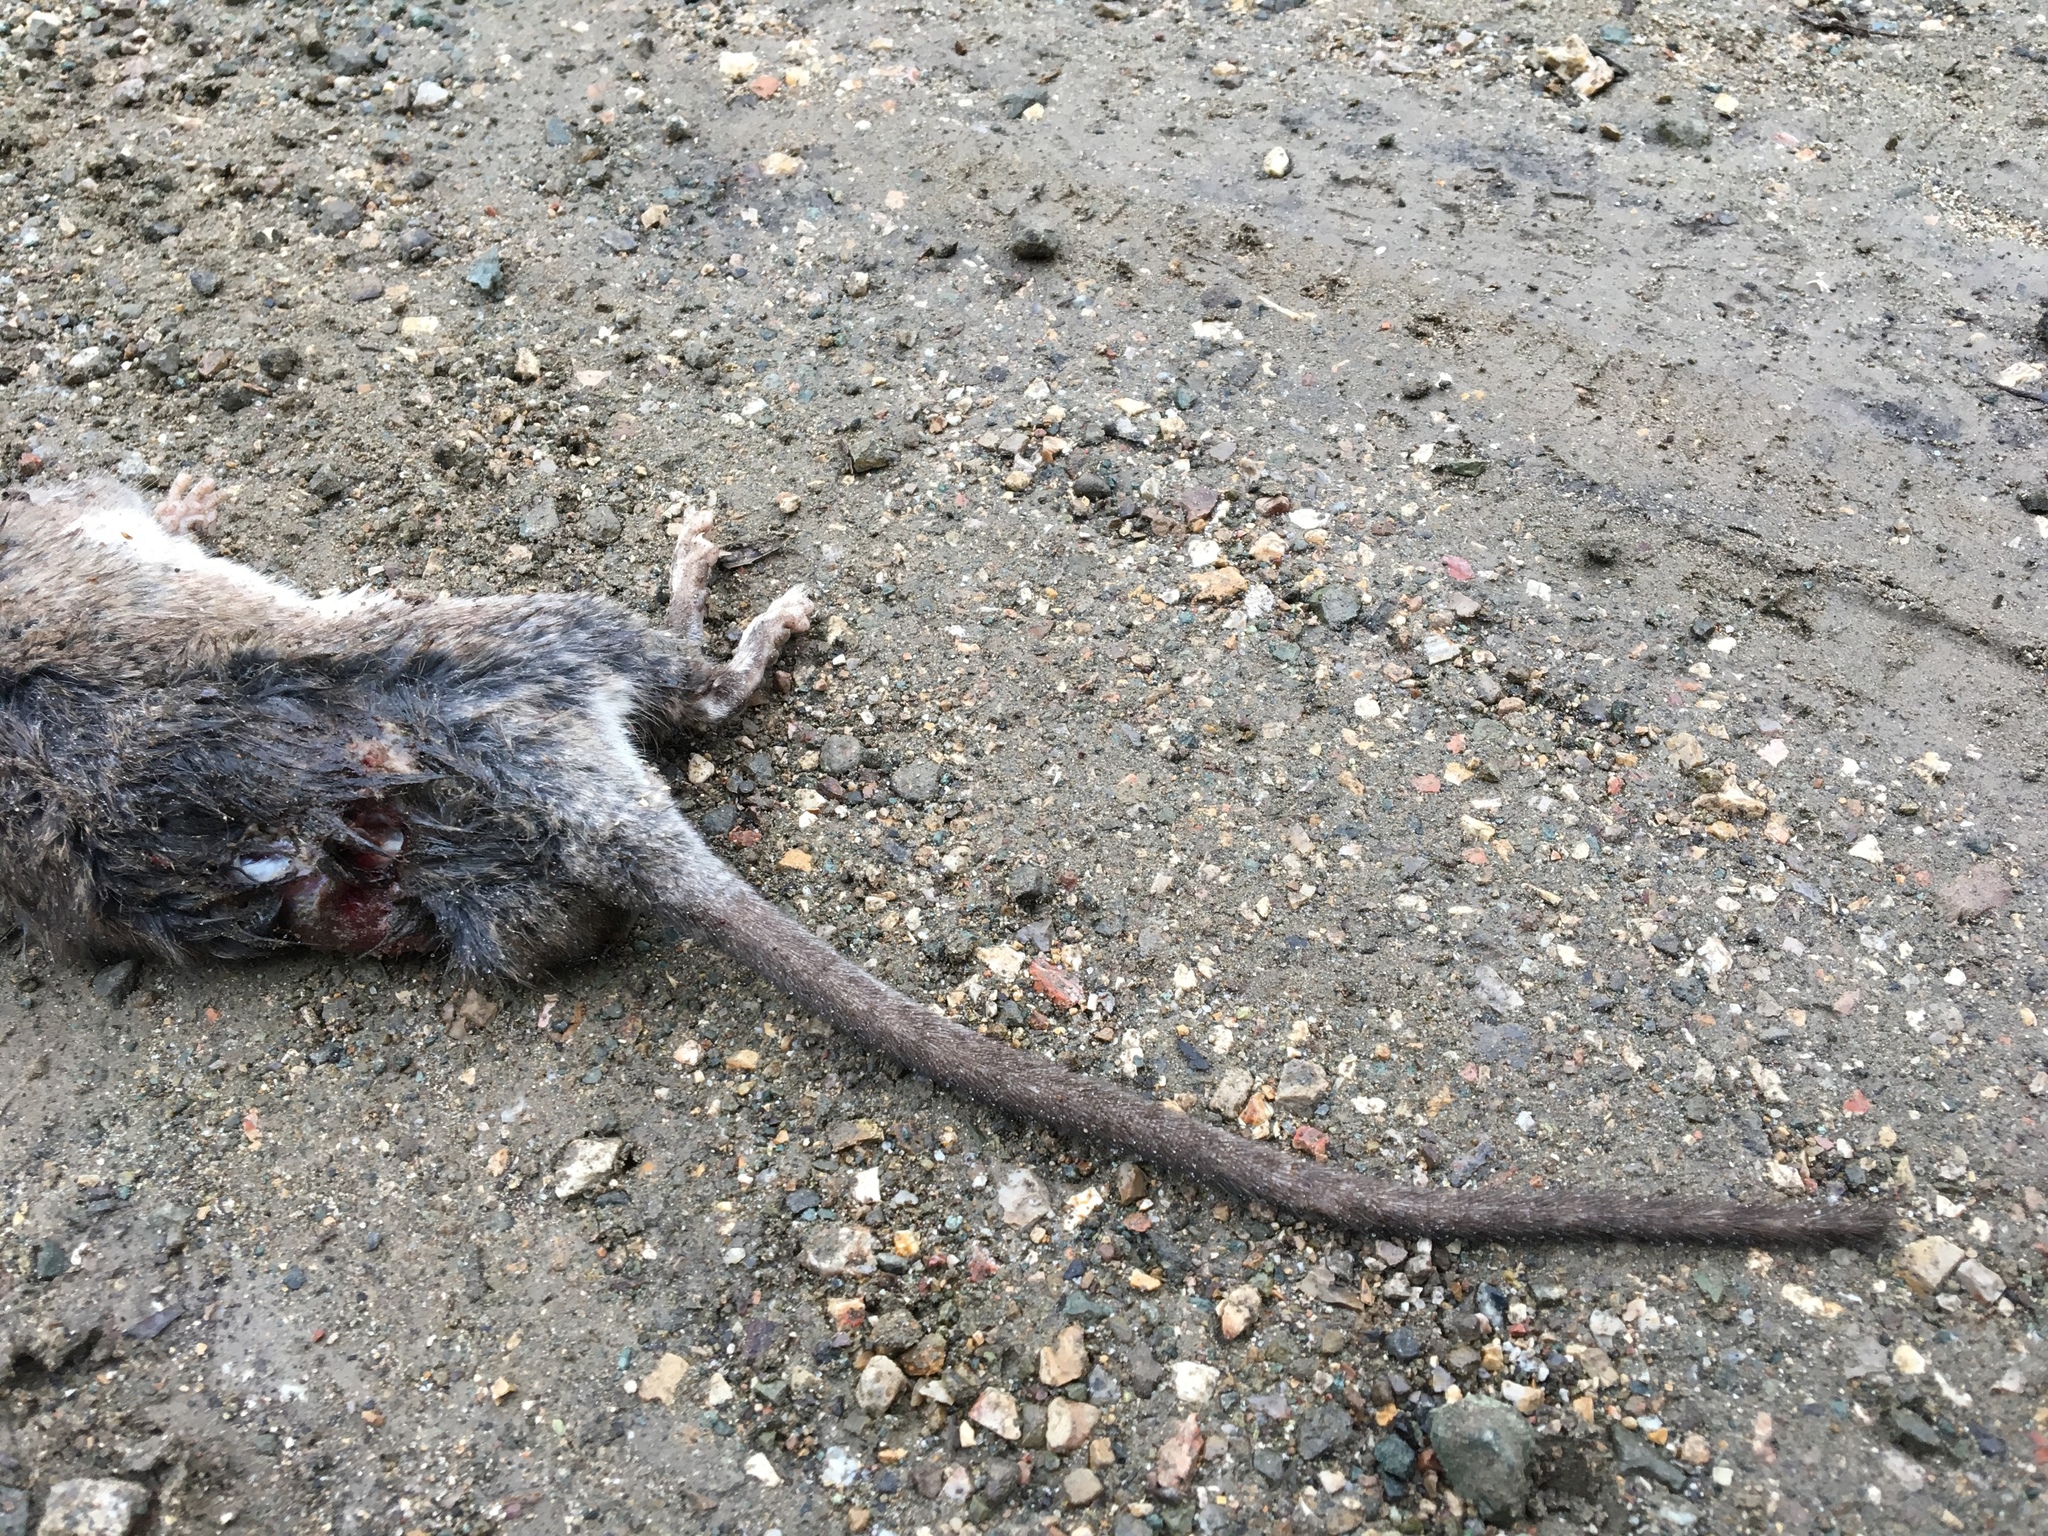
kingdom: Animalia
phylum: Chordata
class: Mammalia
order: Rodentia
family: Cricetidae
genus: Neotoma
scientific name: Neotoma fuscipes
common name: Dusky-footed woodrat
